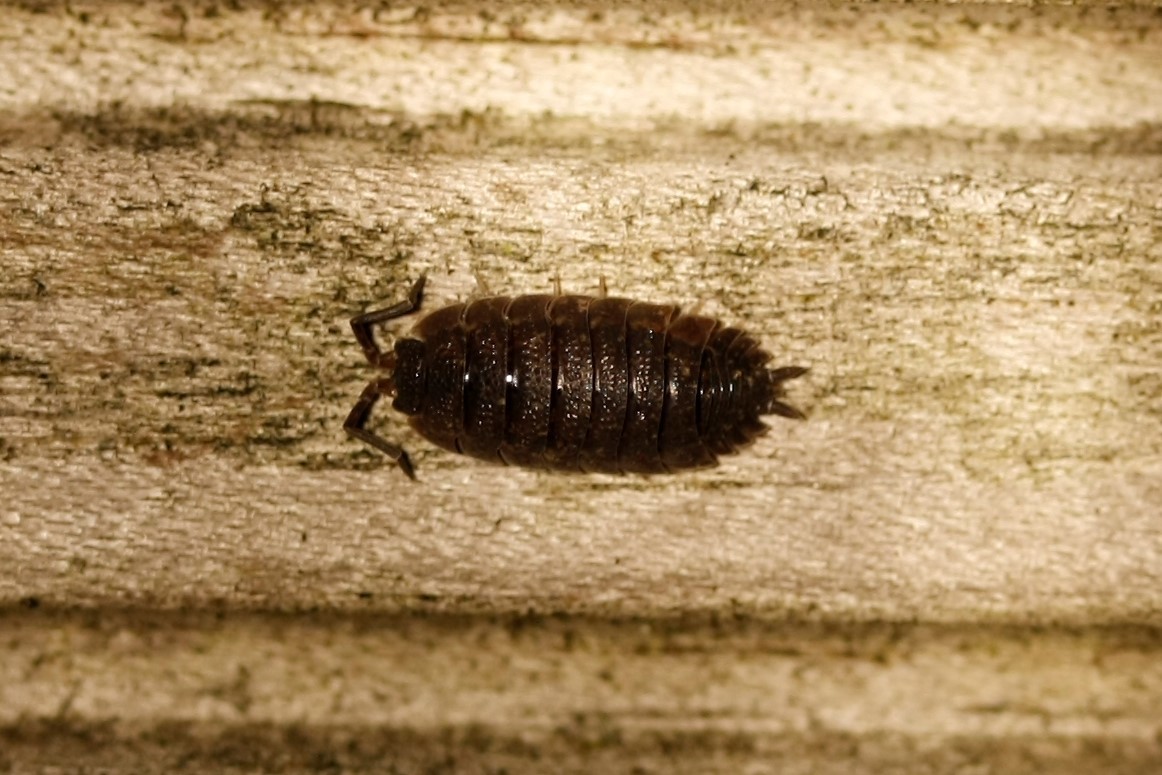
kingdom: Animalia
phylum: Arthropoda
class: Malacostraca
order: Isopoda
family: Porcellionidae
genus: Porcellio
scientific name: Porcellio scaber
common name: Common rough woodlouse
